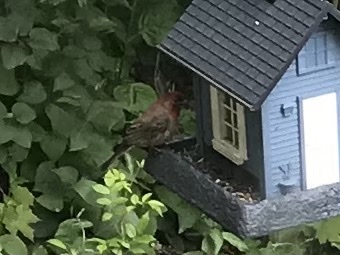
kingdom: Animalia
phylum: Chordata
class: Aves
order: Passeriformes
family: Fringillidae
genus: Haemorhous
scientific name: Haemorhous mexicanus
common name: House finch
